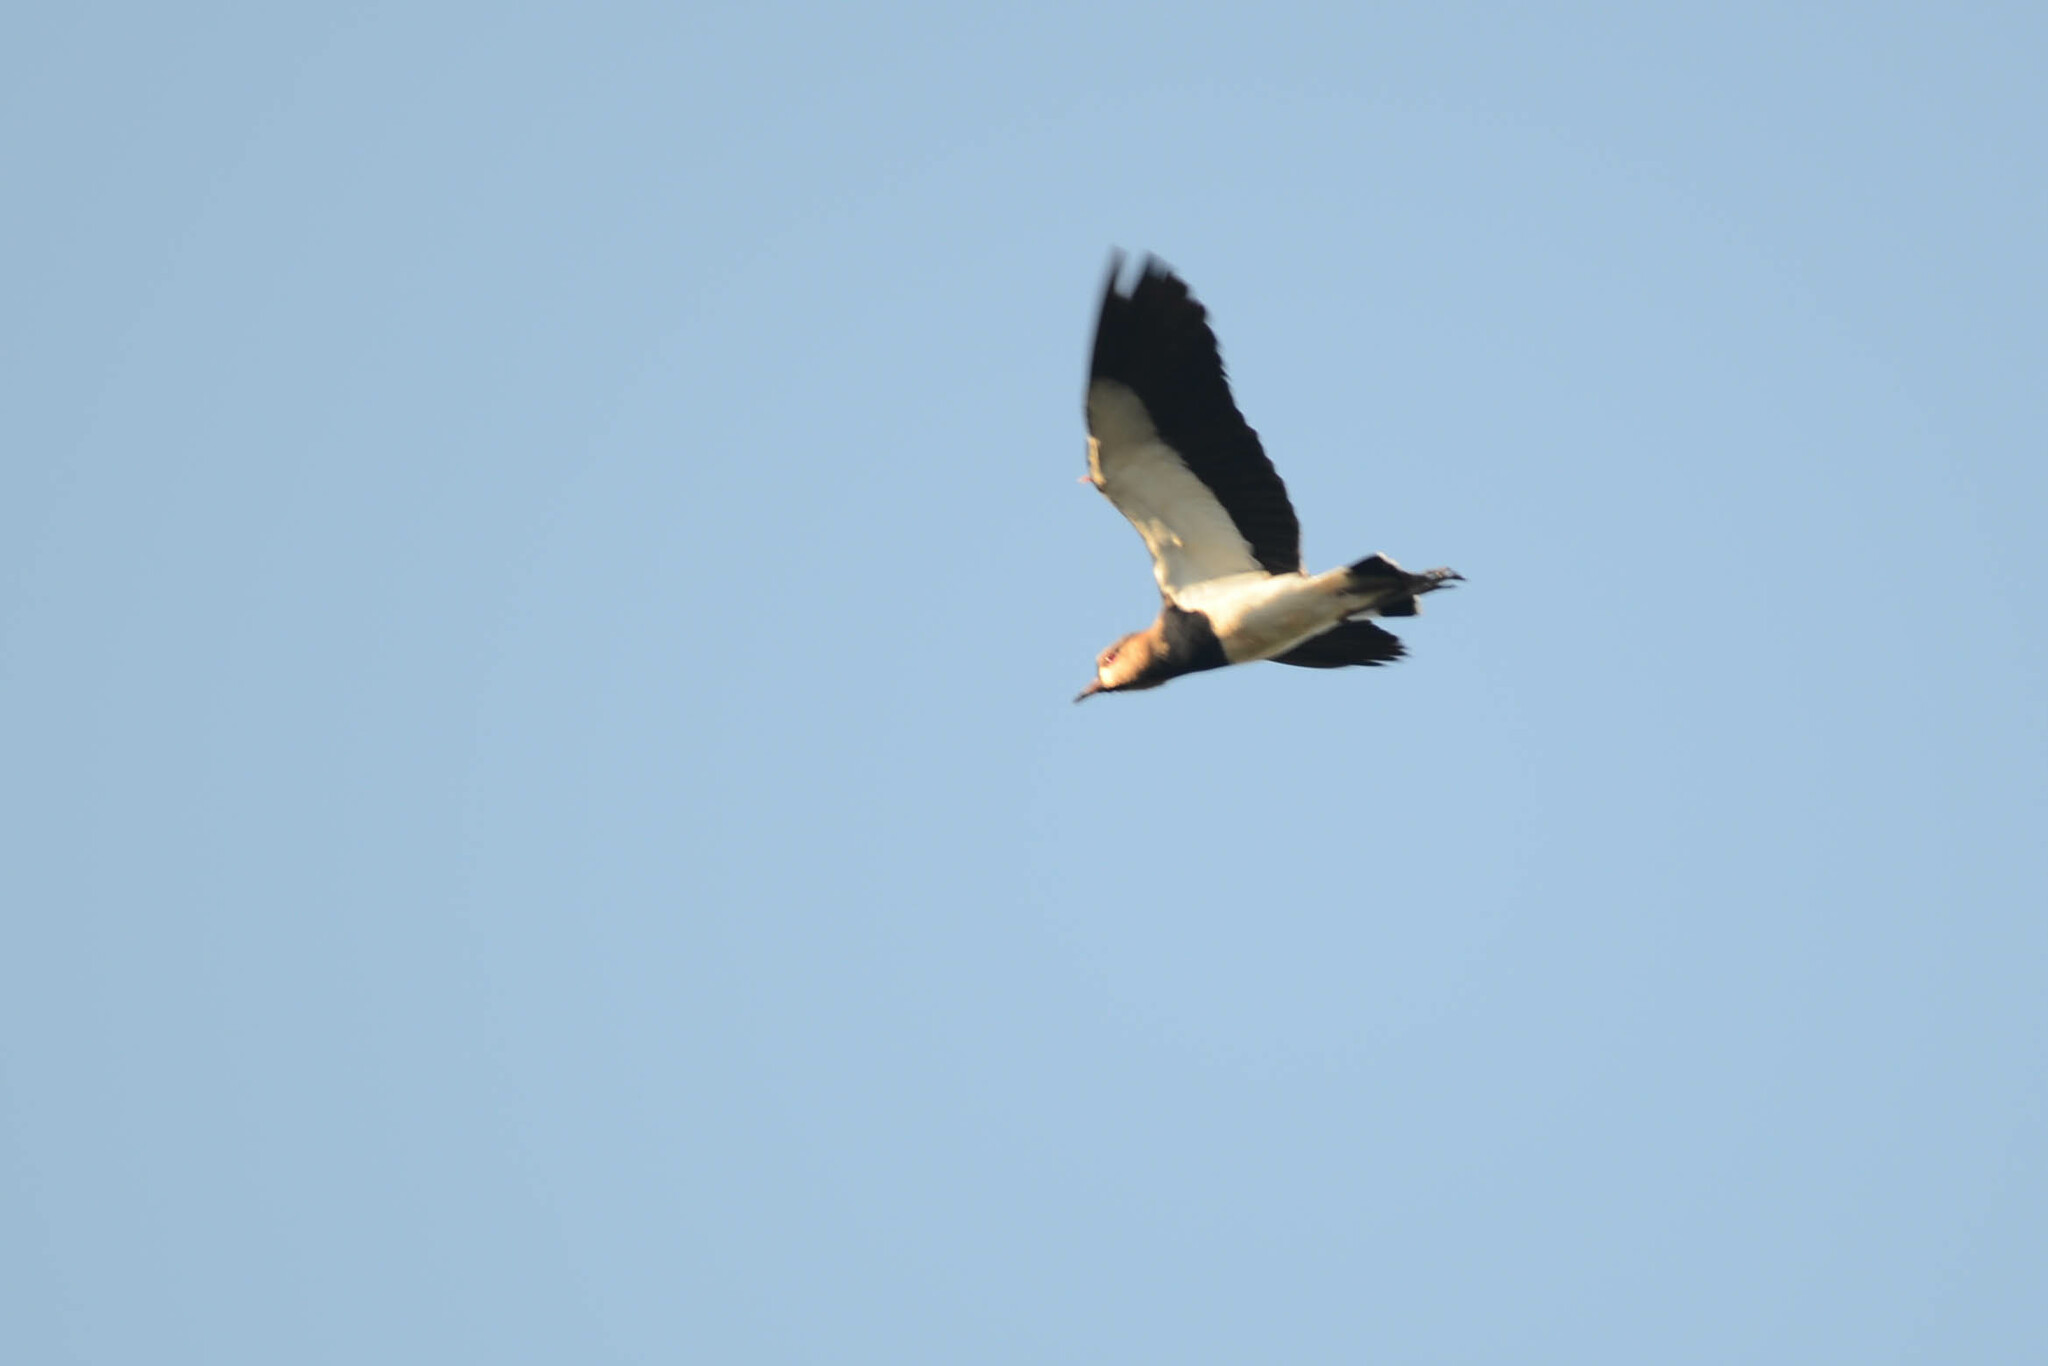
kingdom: Animalia
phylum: Chordata
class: Aves
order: Charadriiformes
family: Charadriidae
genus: Vanellus
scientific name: Vanellus chilensis
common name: Southern lapwing
